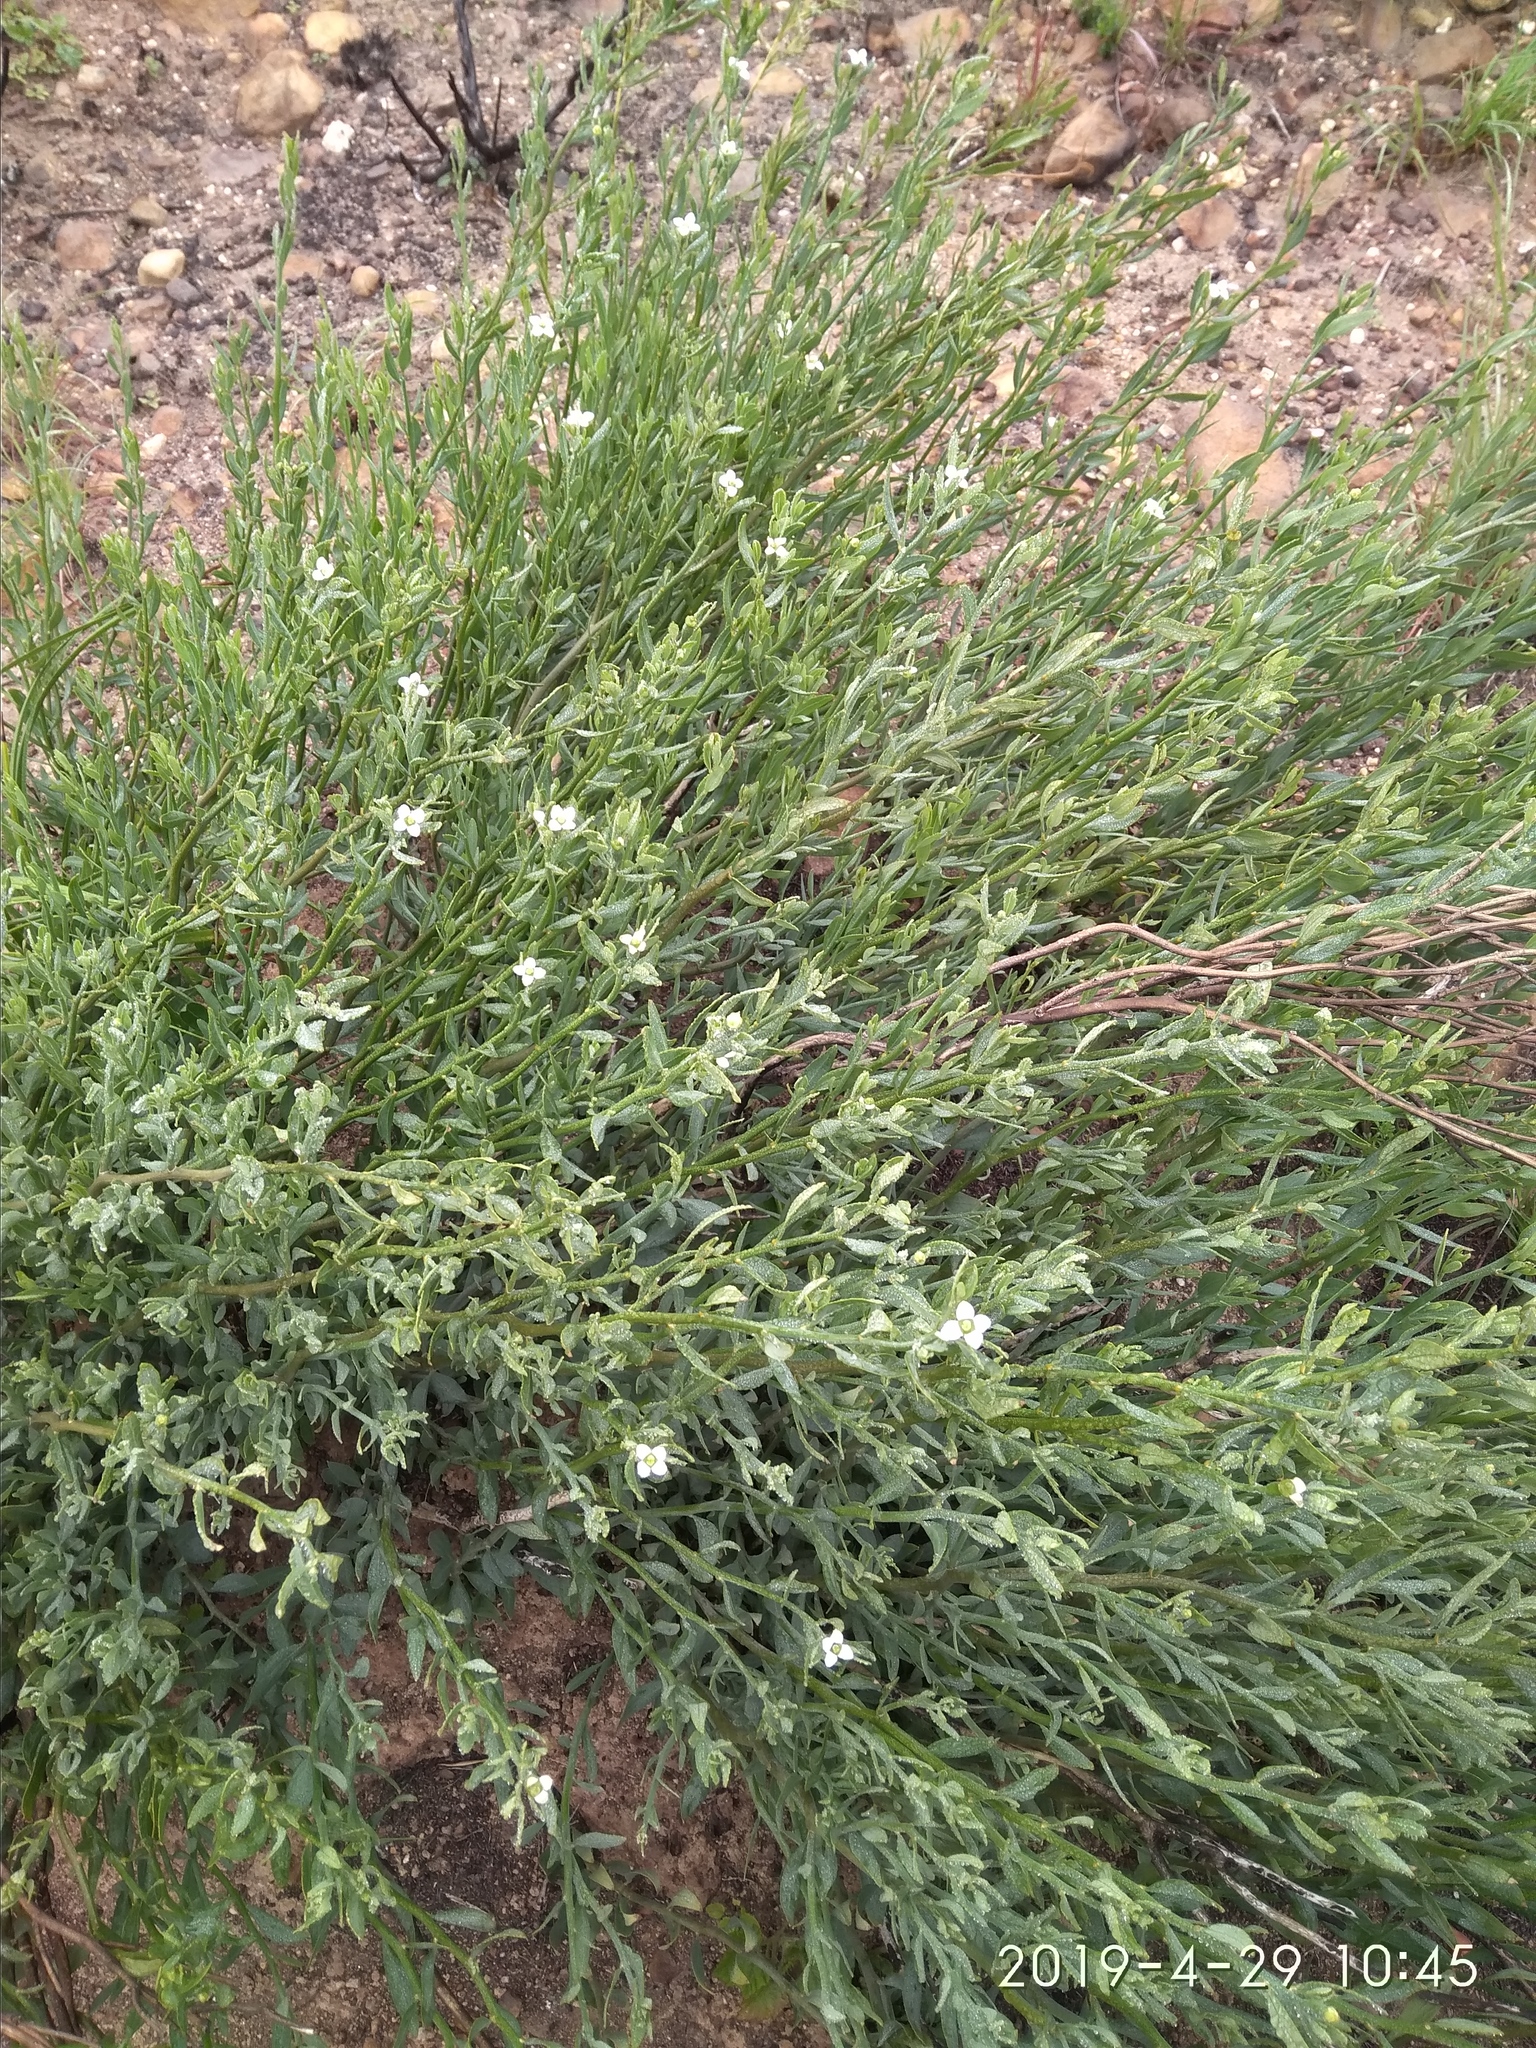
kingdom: Plantae
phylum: Tracheophyta
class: Magnoliopsida
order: Solanales
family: Montiniaceae
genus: Montinia
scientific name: Montinia caryophyllacea
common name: Wild clove-bush
